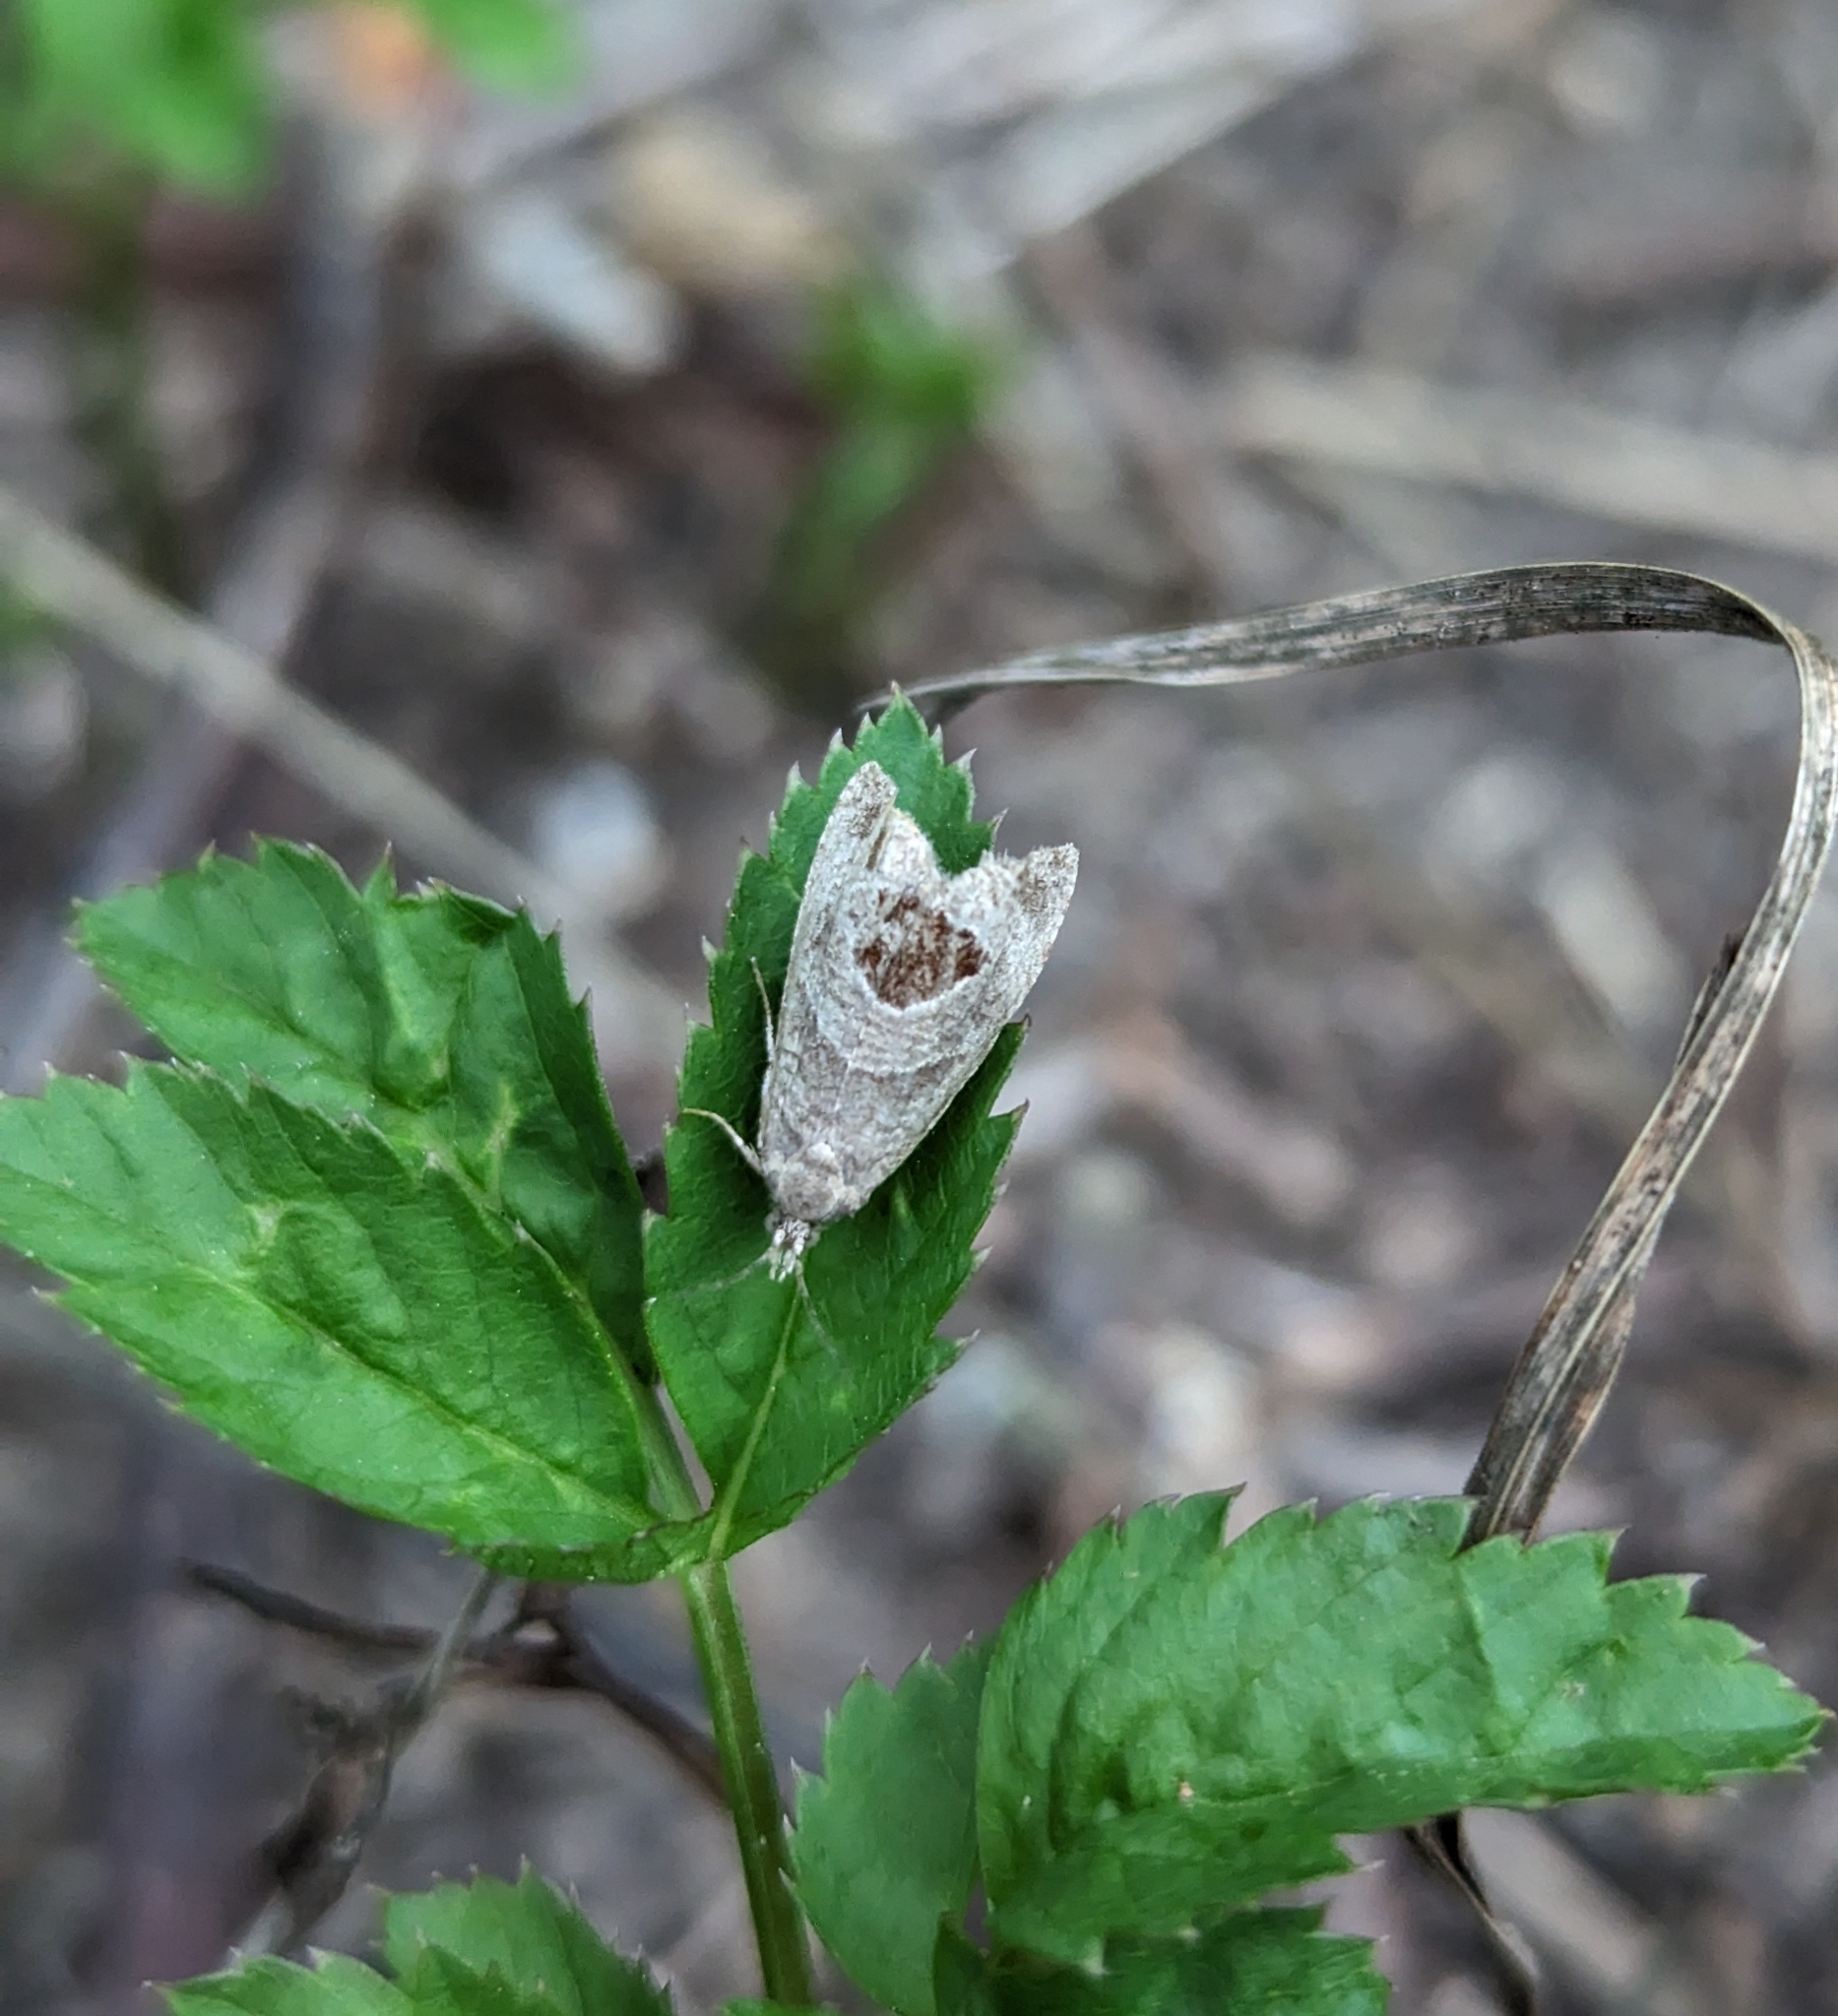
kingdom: Animalia
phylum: Arthropoda
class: Insecta
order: Lepidoptera
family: Tortricidae
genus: Notocelia
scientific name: Notocelia uddmanniana
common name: Bramble shoot moth
